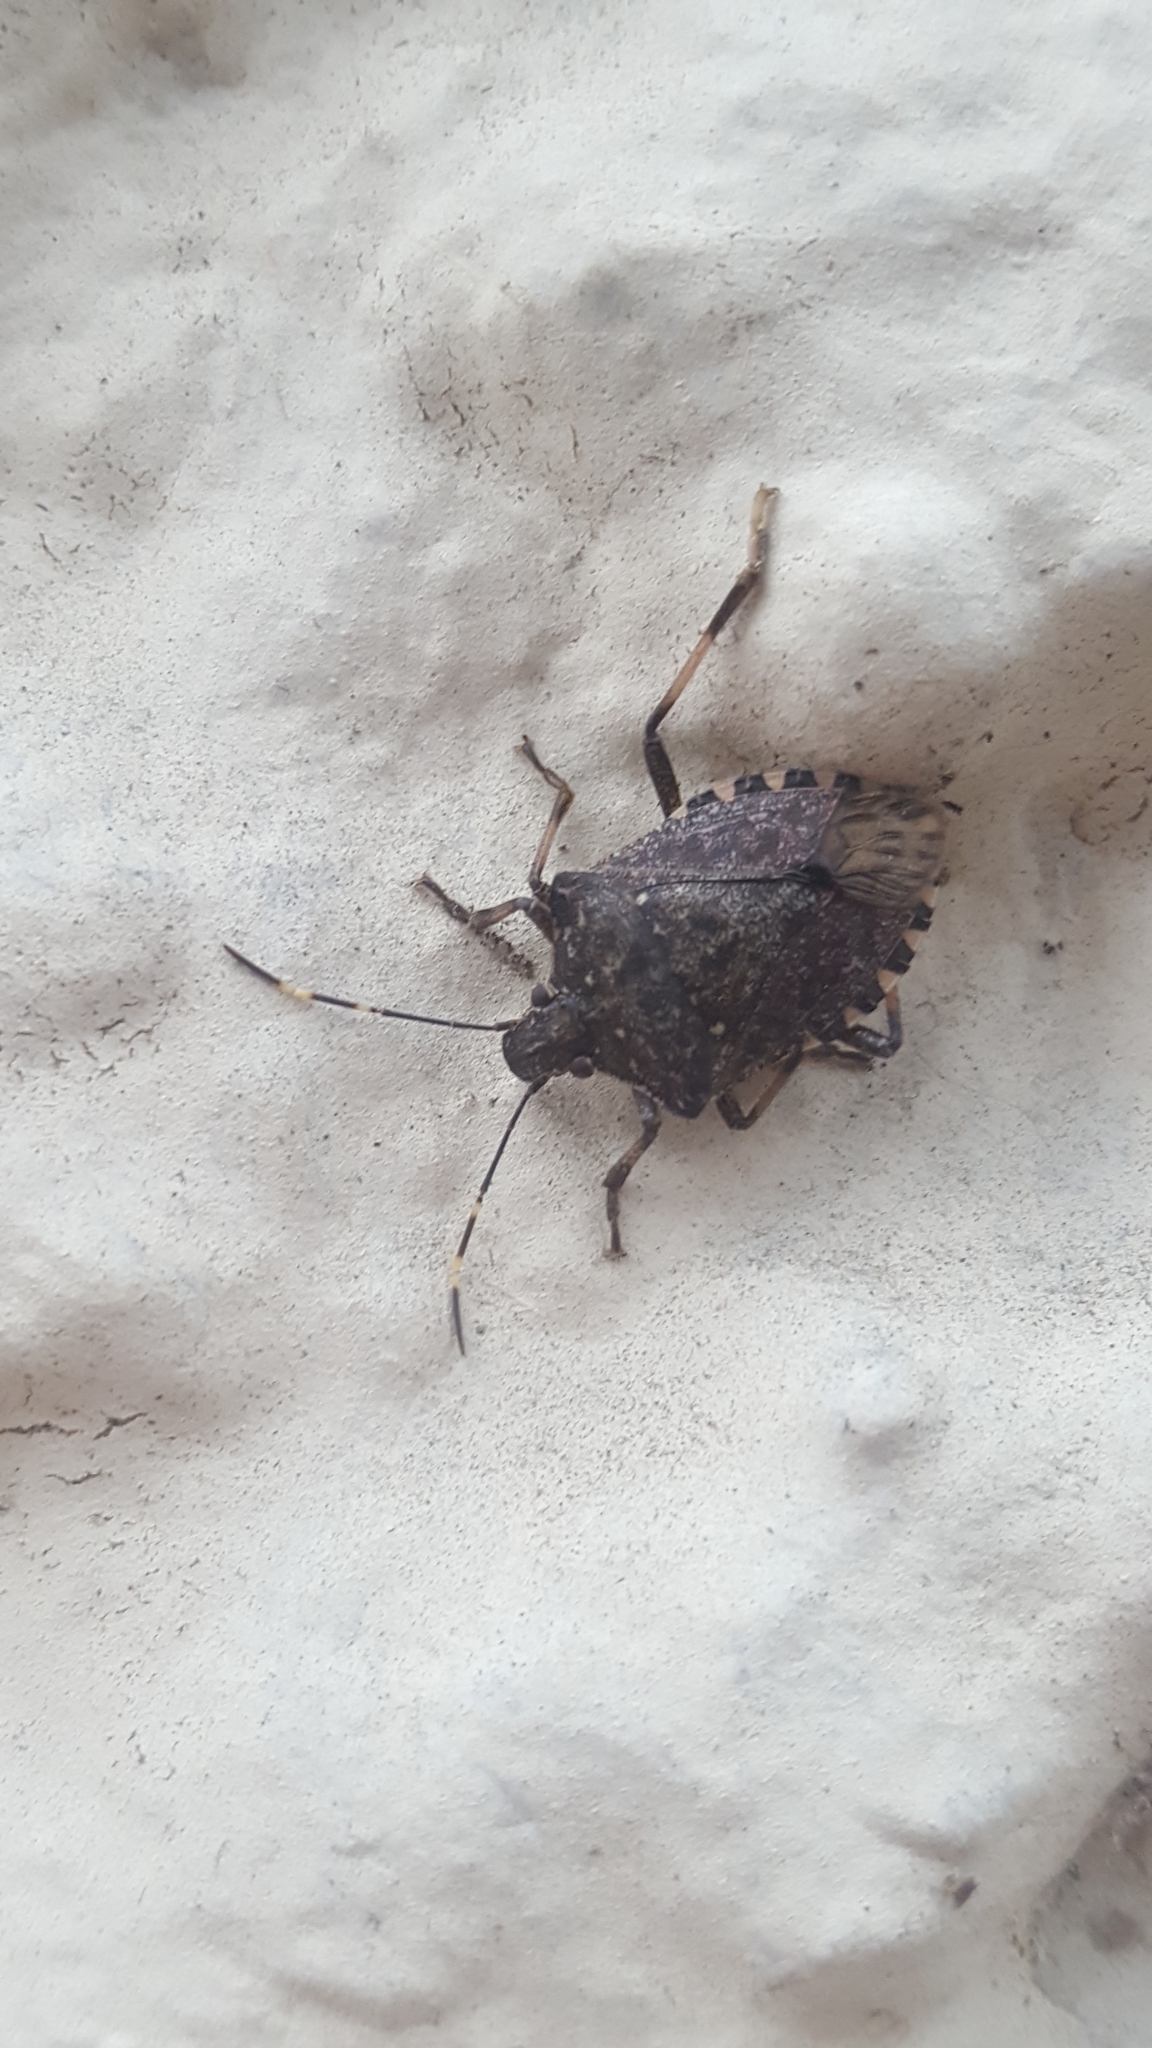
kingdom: Animalia
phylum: Arthropoda
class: Insecta
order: Hemiptera
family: Pentatomidae
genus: Halyomorpha
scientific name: Halyomorpha halys
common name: Brown marmorated stink bug
